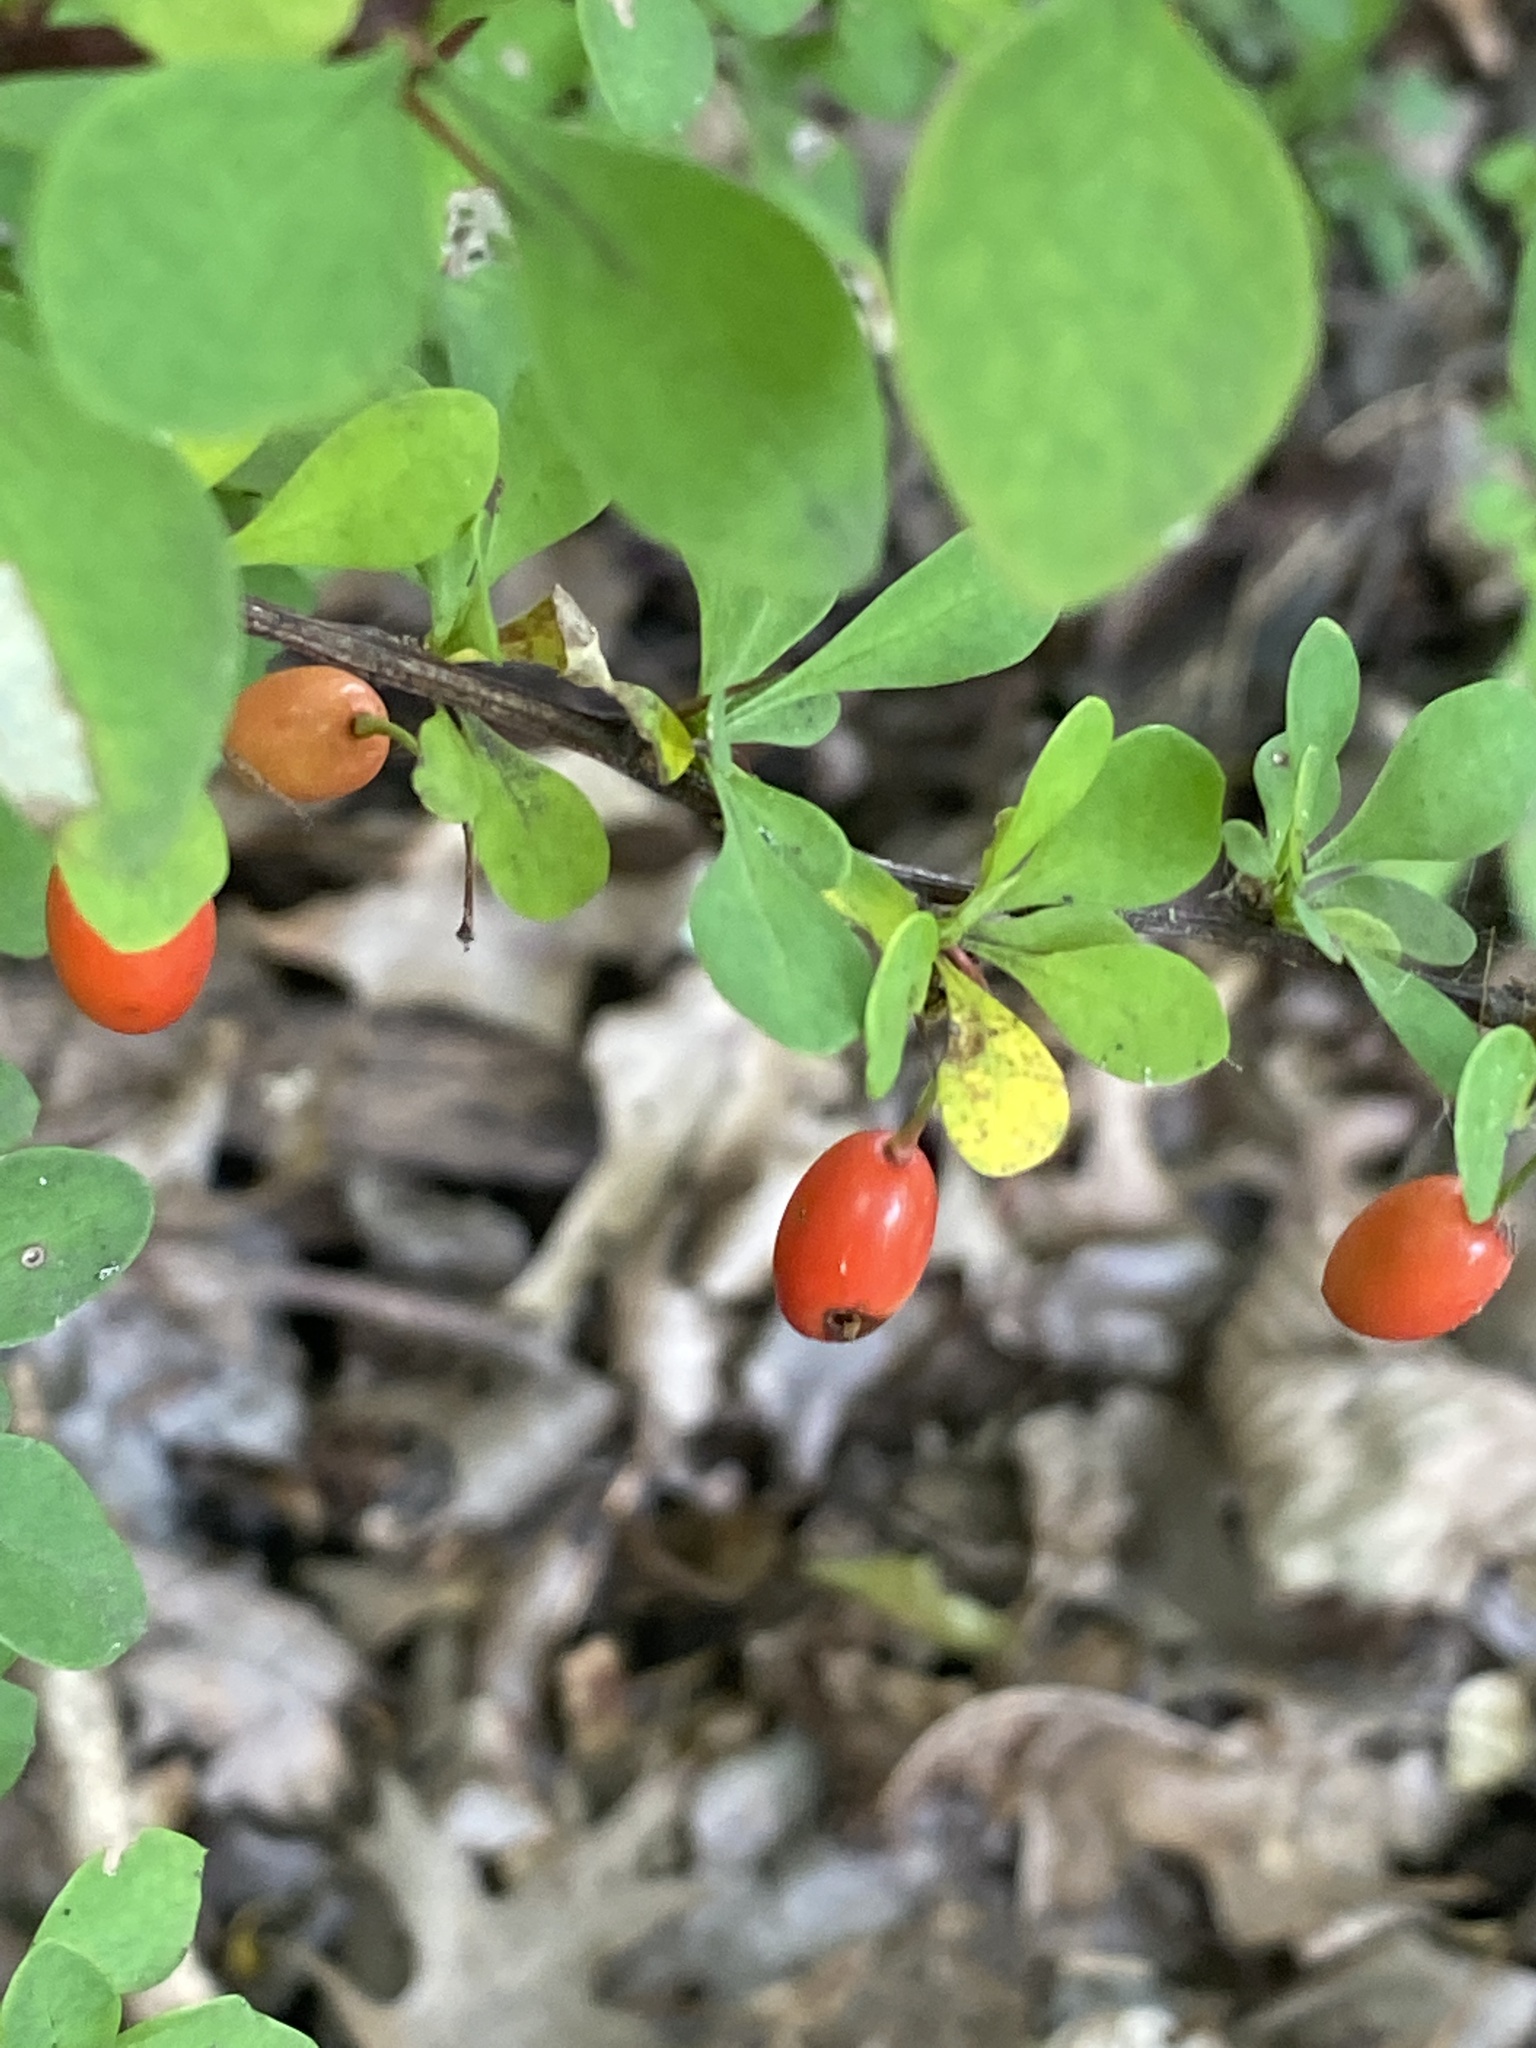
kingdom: Plantae
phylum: Tracheophyta
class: Magnoliopsida
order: Ranunculales
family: Berberidaceae
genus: Berberis
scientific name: Berberis thunbergii
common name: Japanese barberry
